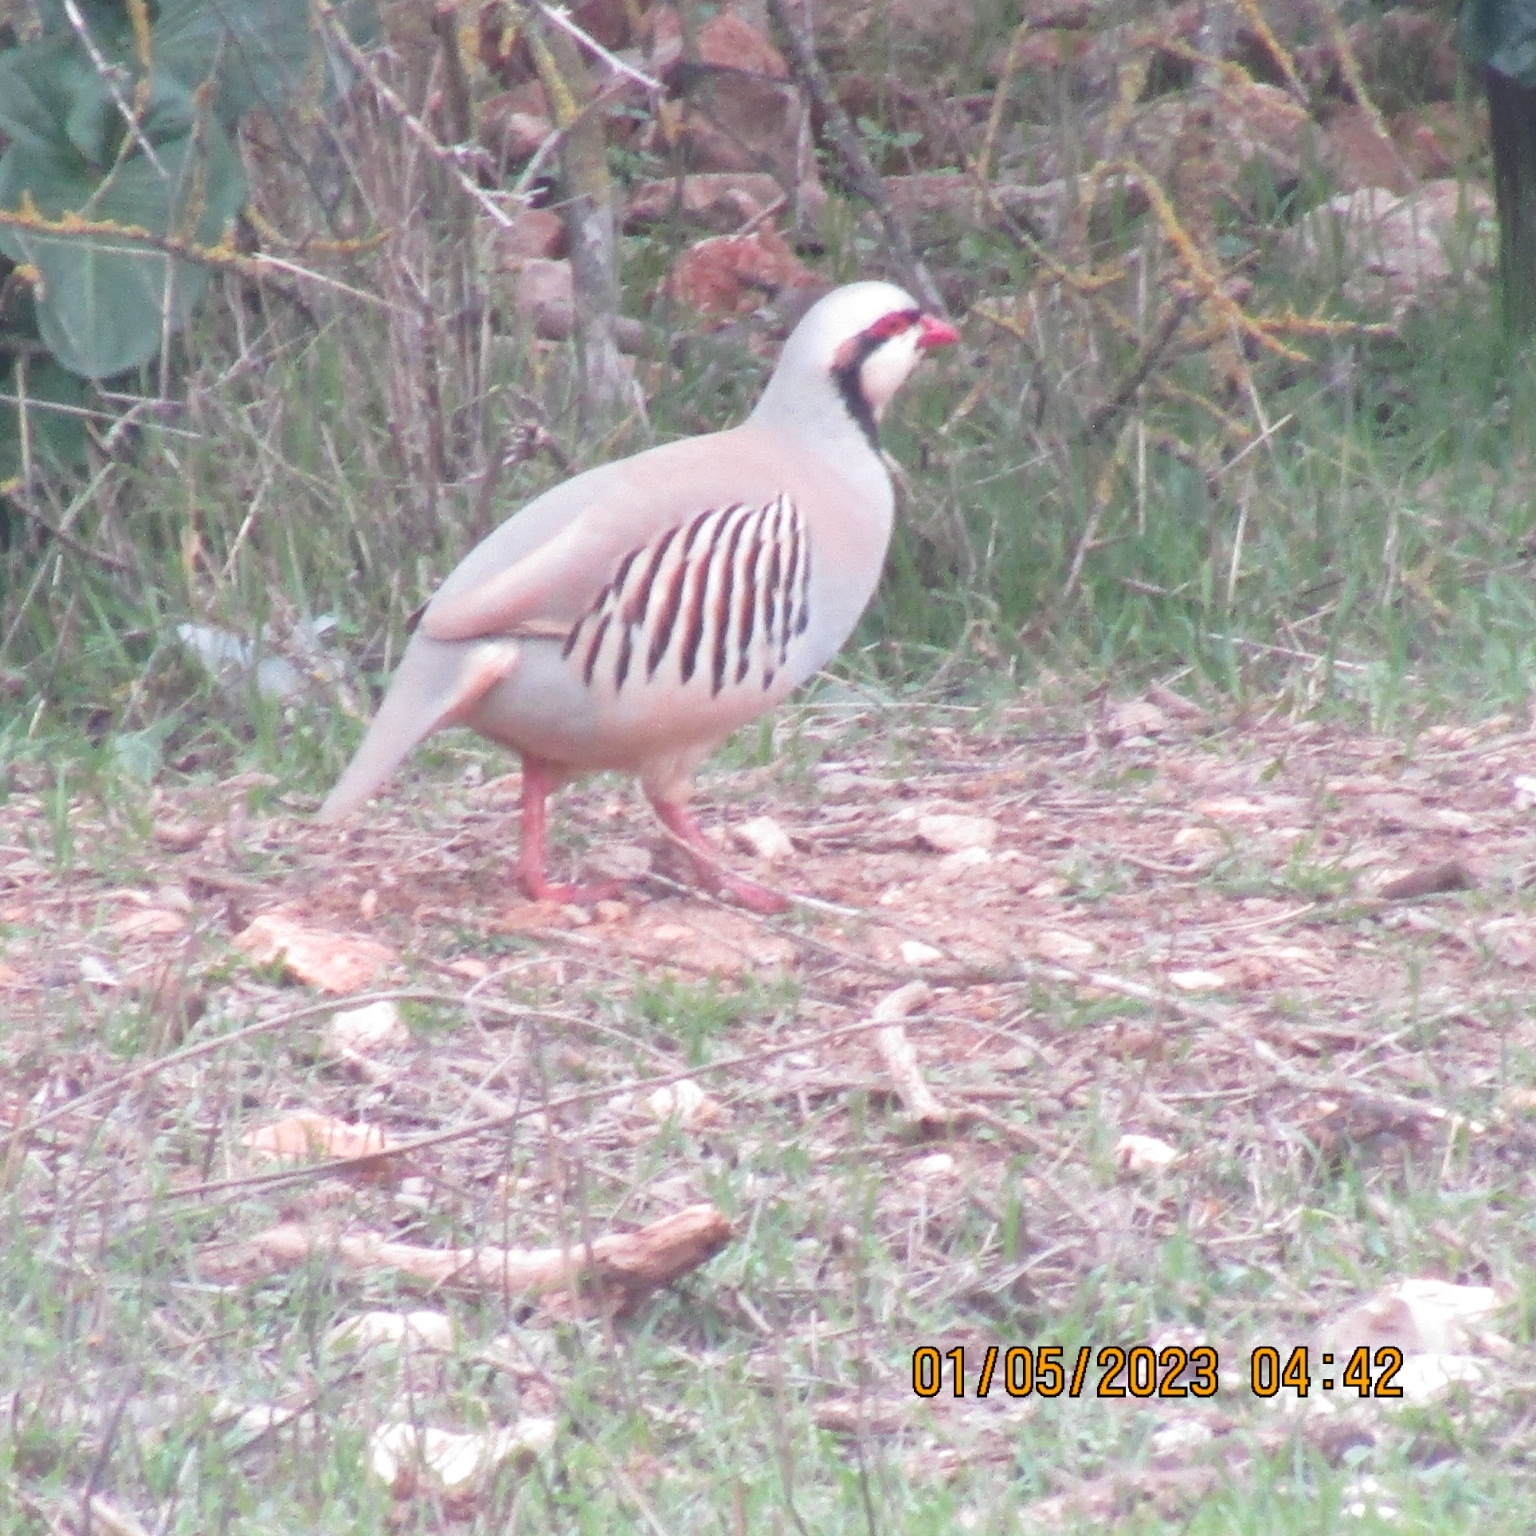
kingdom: Animalia
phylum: Chordata
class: Aves
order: Galliformes
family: Phasianidae
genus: Alectoris
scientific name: Alectoris chukar
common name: Chukar
